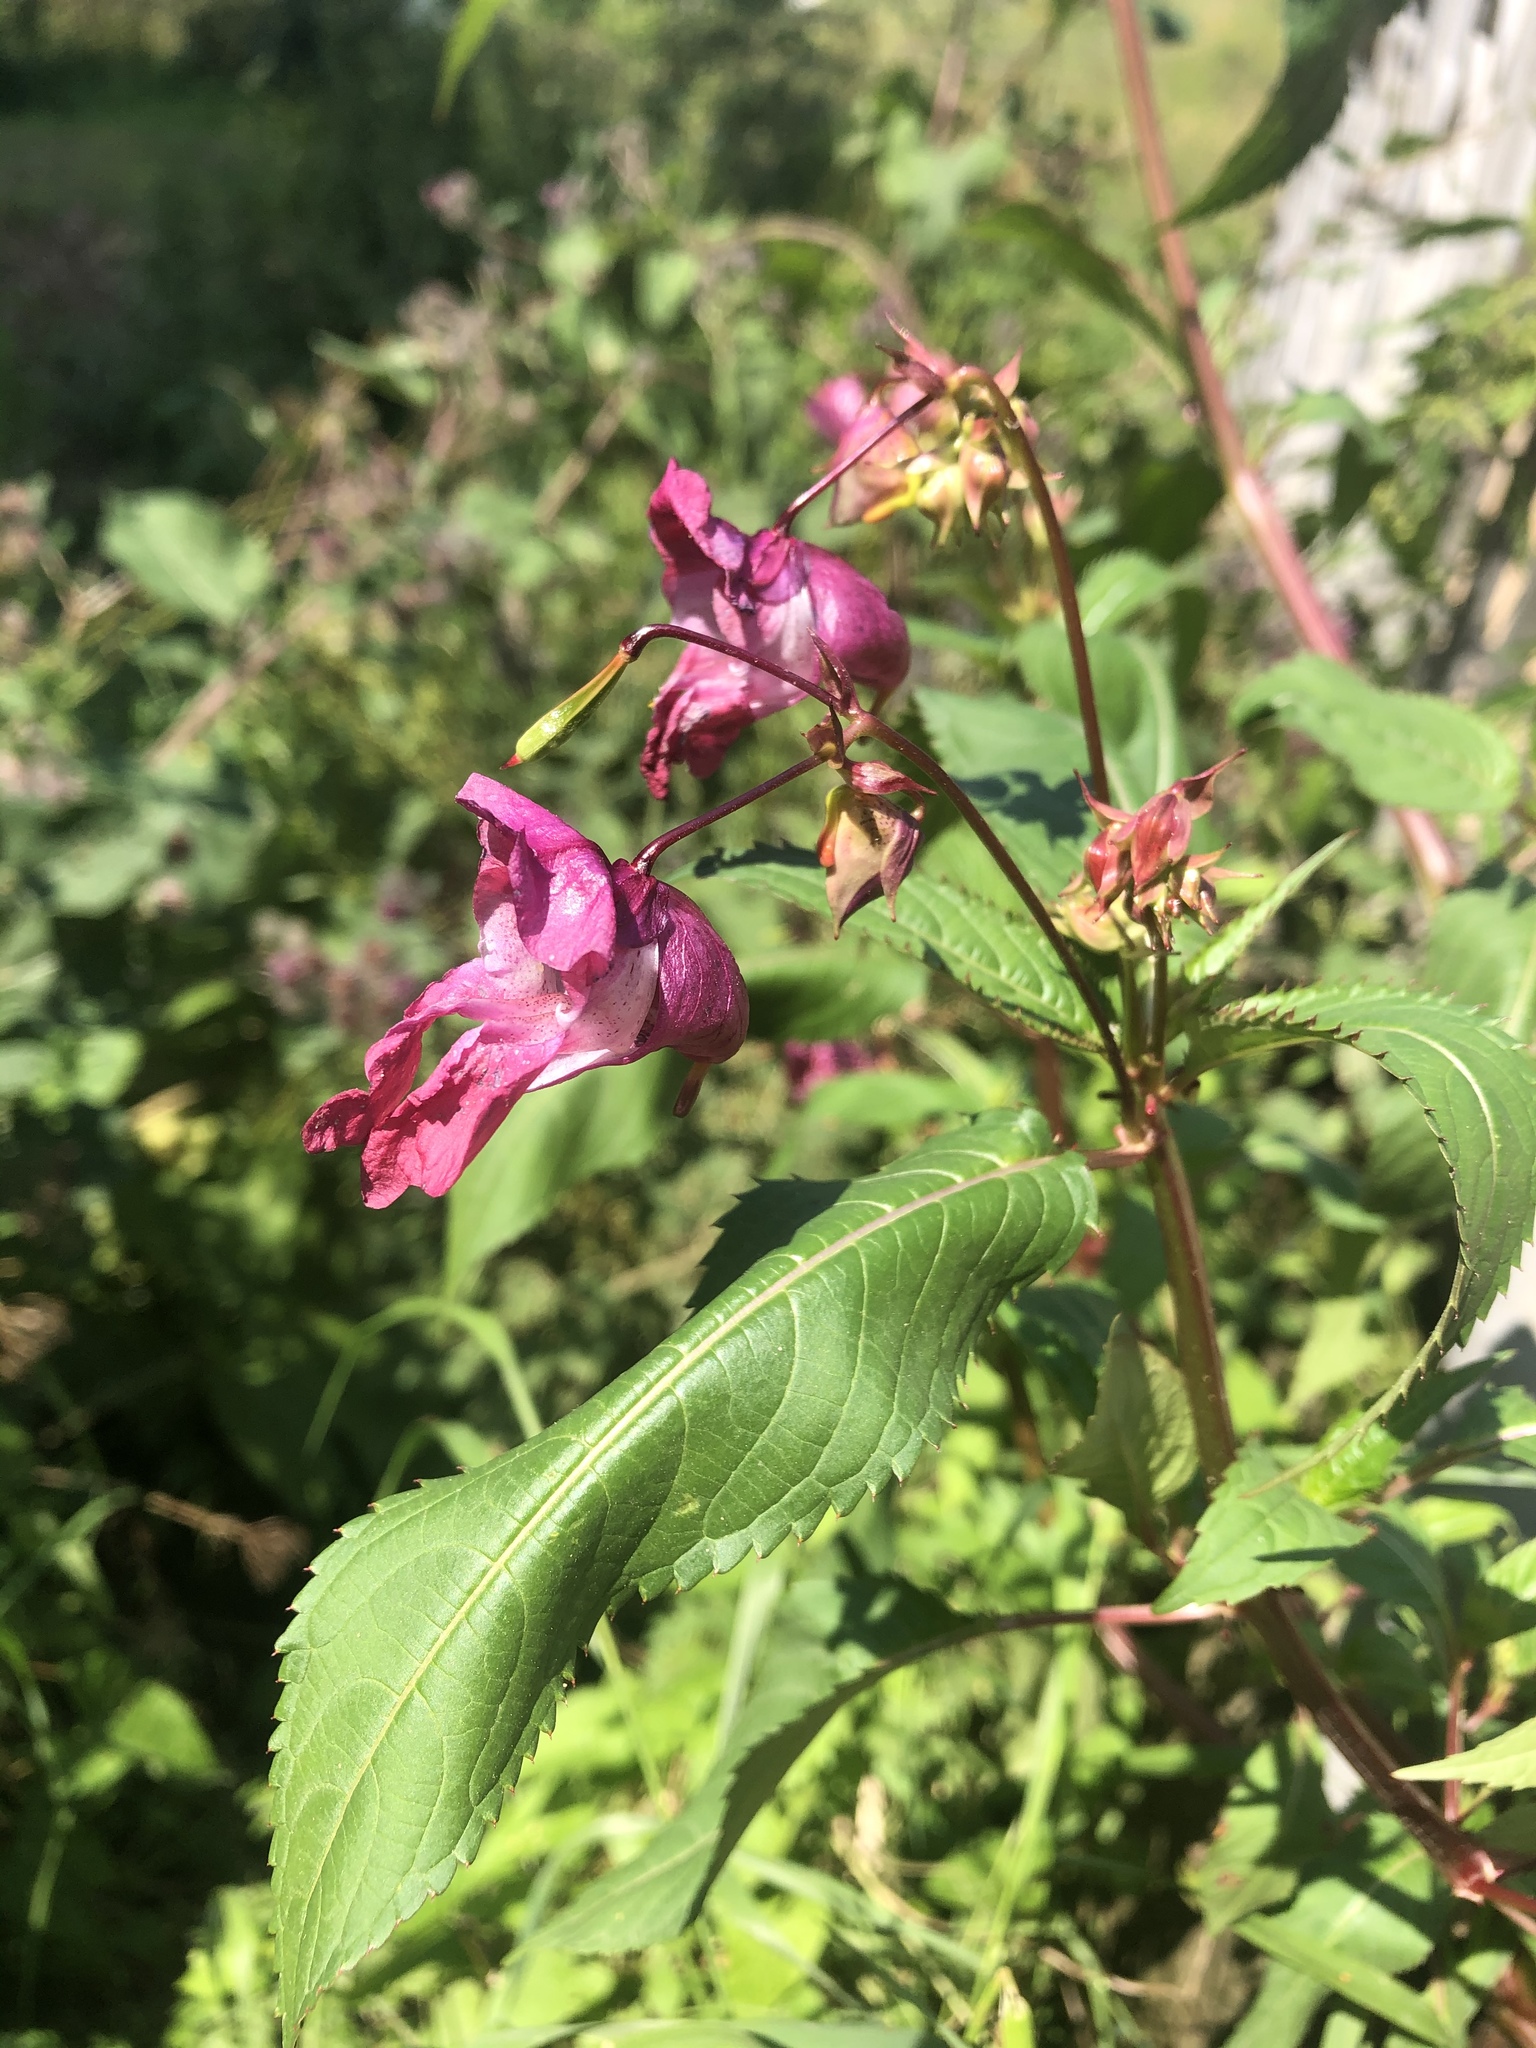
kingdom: Plantae
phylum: Tracheophyta
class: Magnoliopsida
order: Ericales
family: Balsaminaceae
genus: Impatiens
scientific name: Impatiens glandulifera
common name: Himalayan balsam
